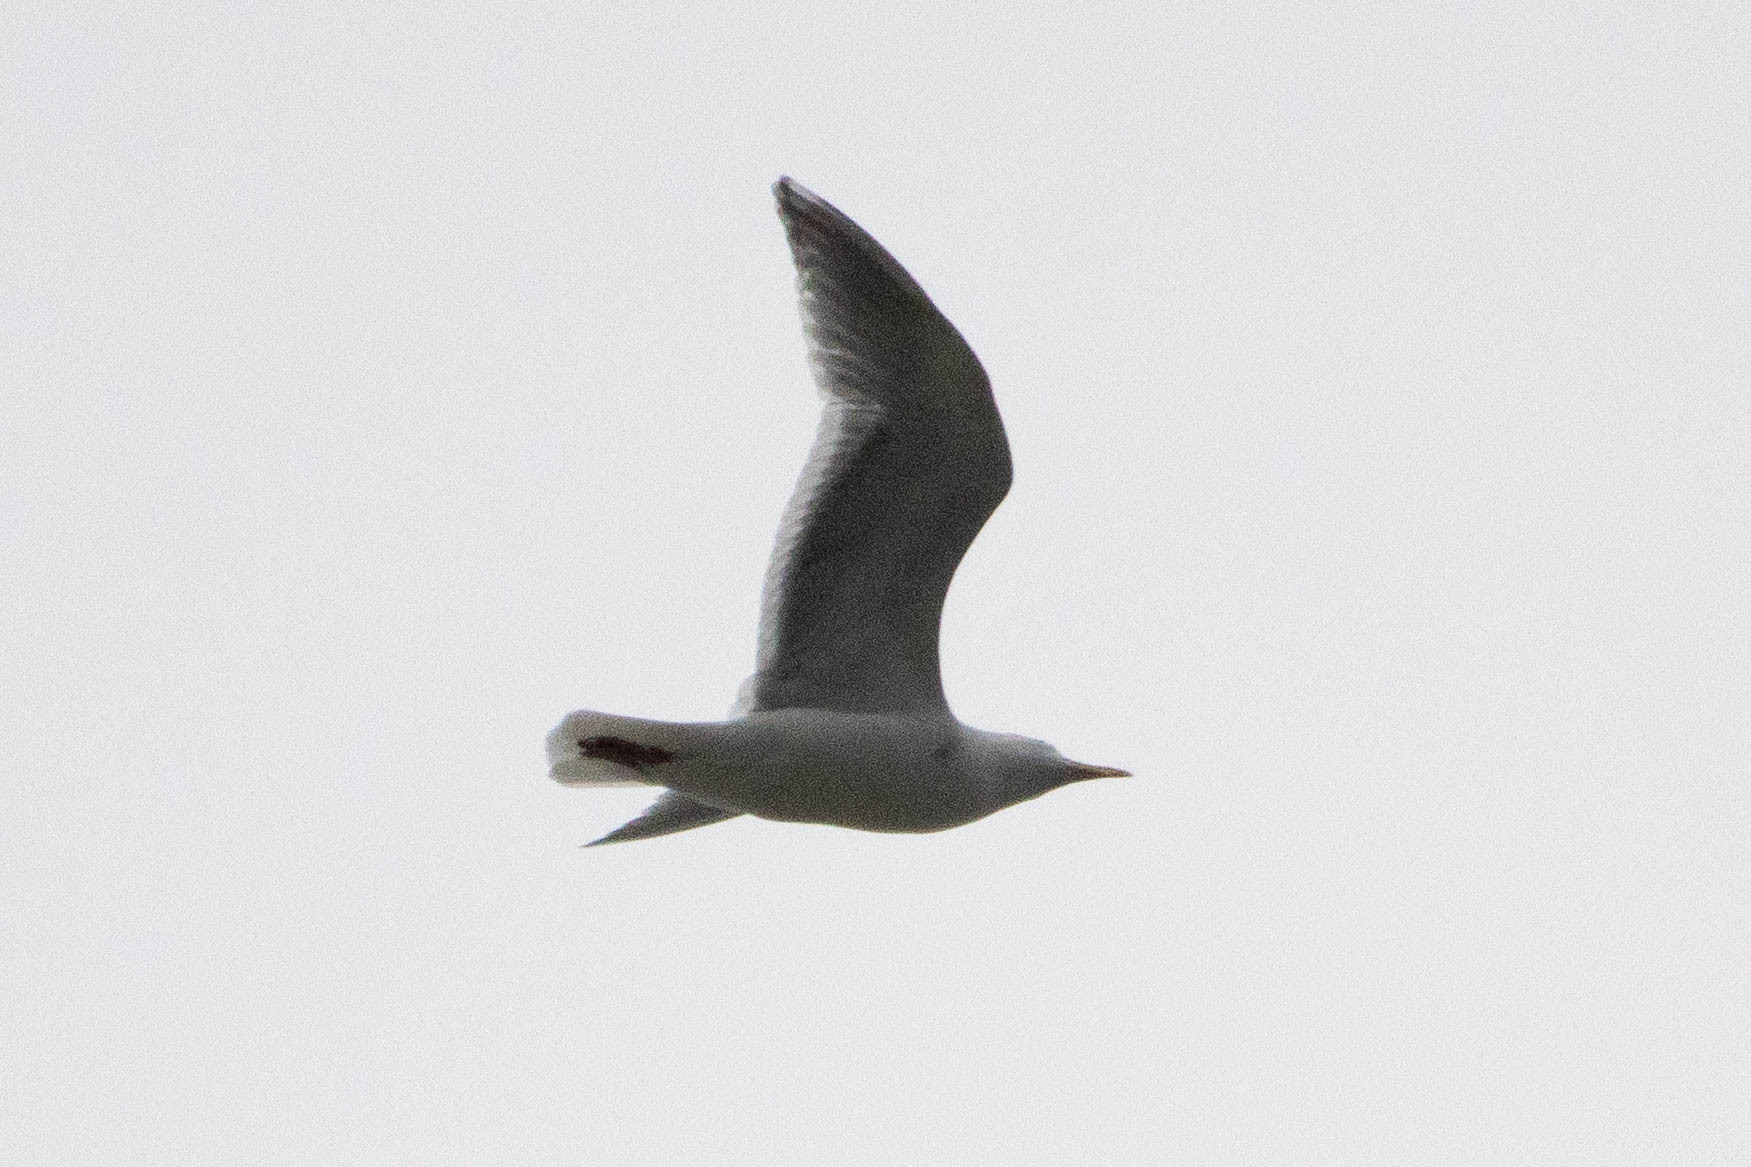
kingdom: Animalia
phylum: Chordata
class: Aves
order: Charadriiformes
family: Laridae
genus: Larus
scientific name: Larus
